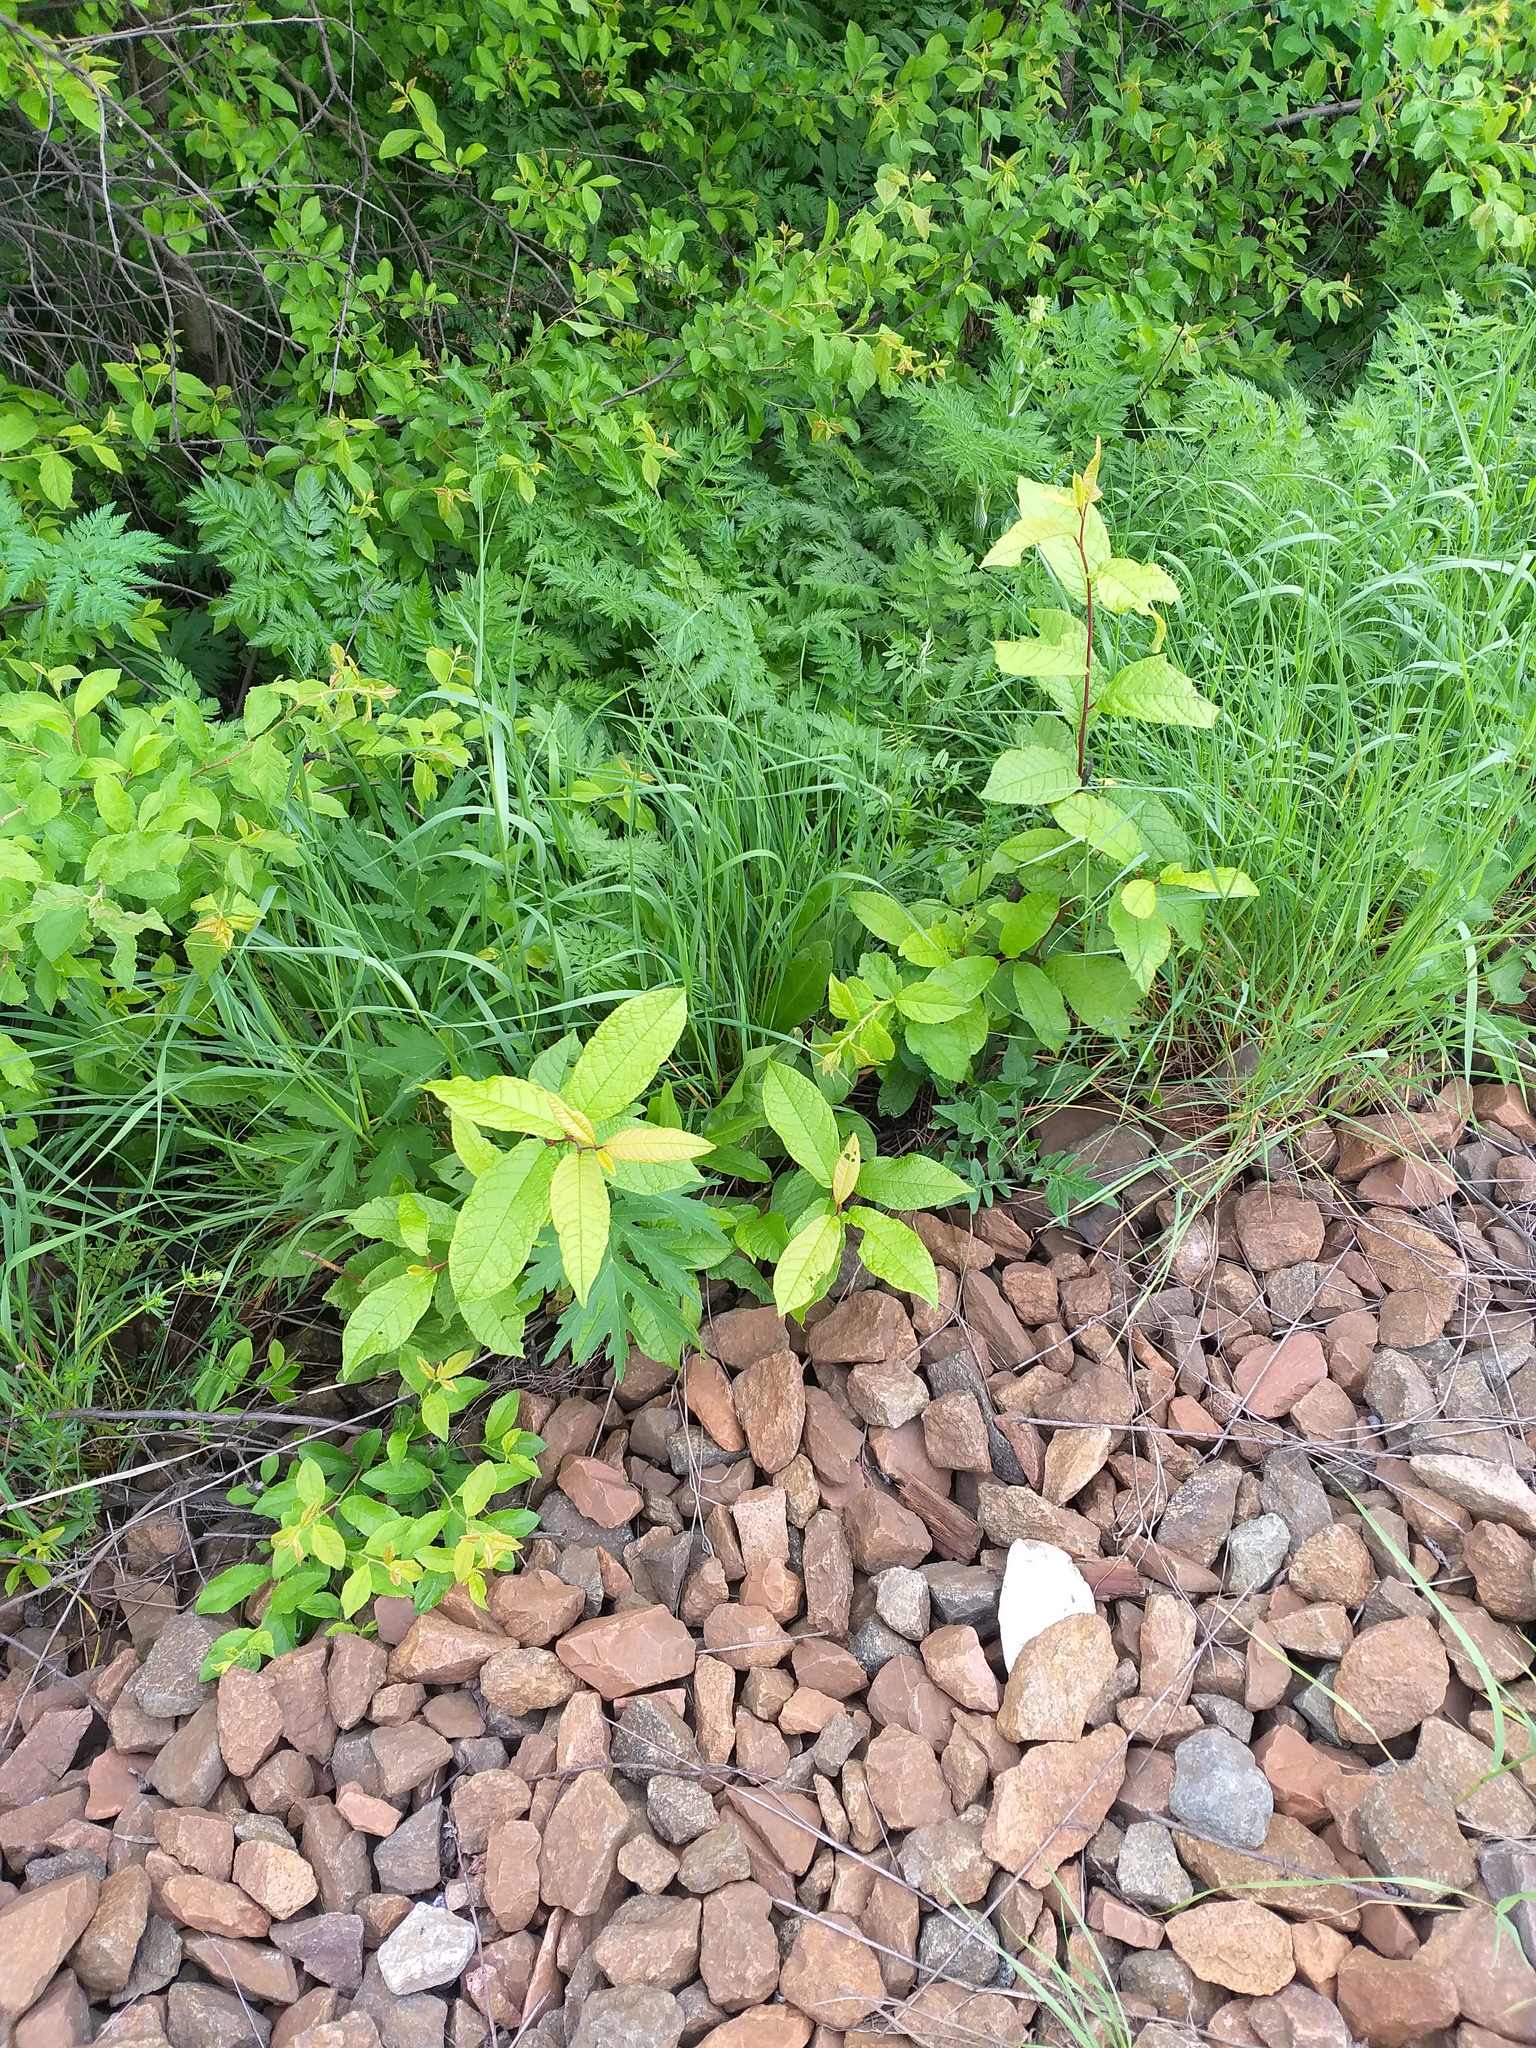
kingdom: Plantae
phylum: Tracheophyta
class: Magnoliopsida
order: Rosales
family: Rosaceae
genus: Prunus
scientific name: Prunus padus
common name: Bird cherry
